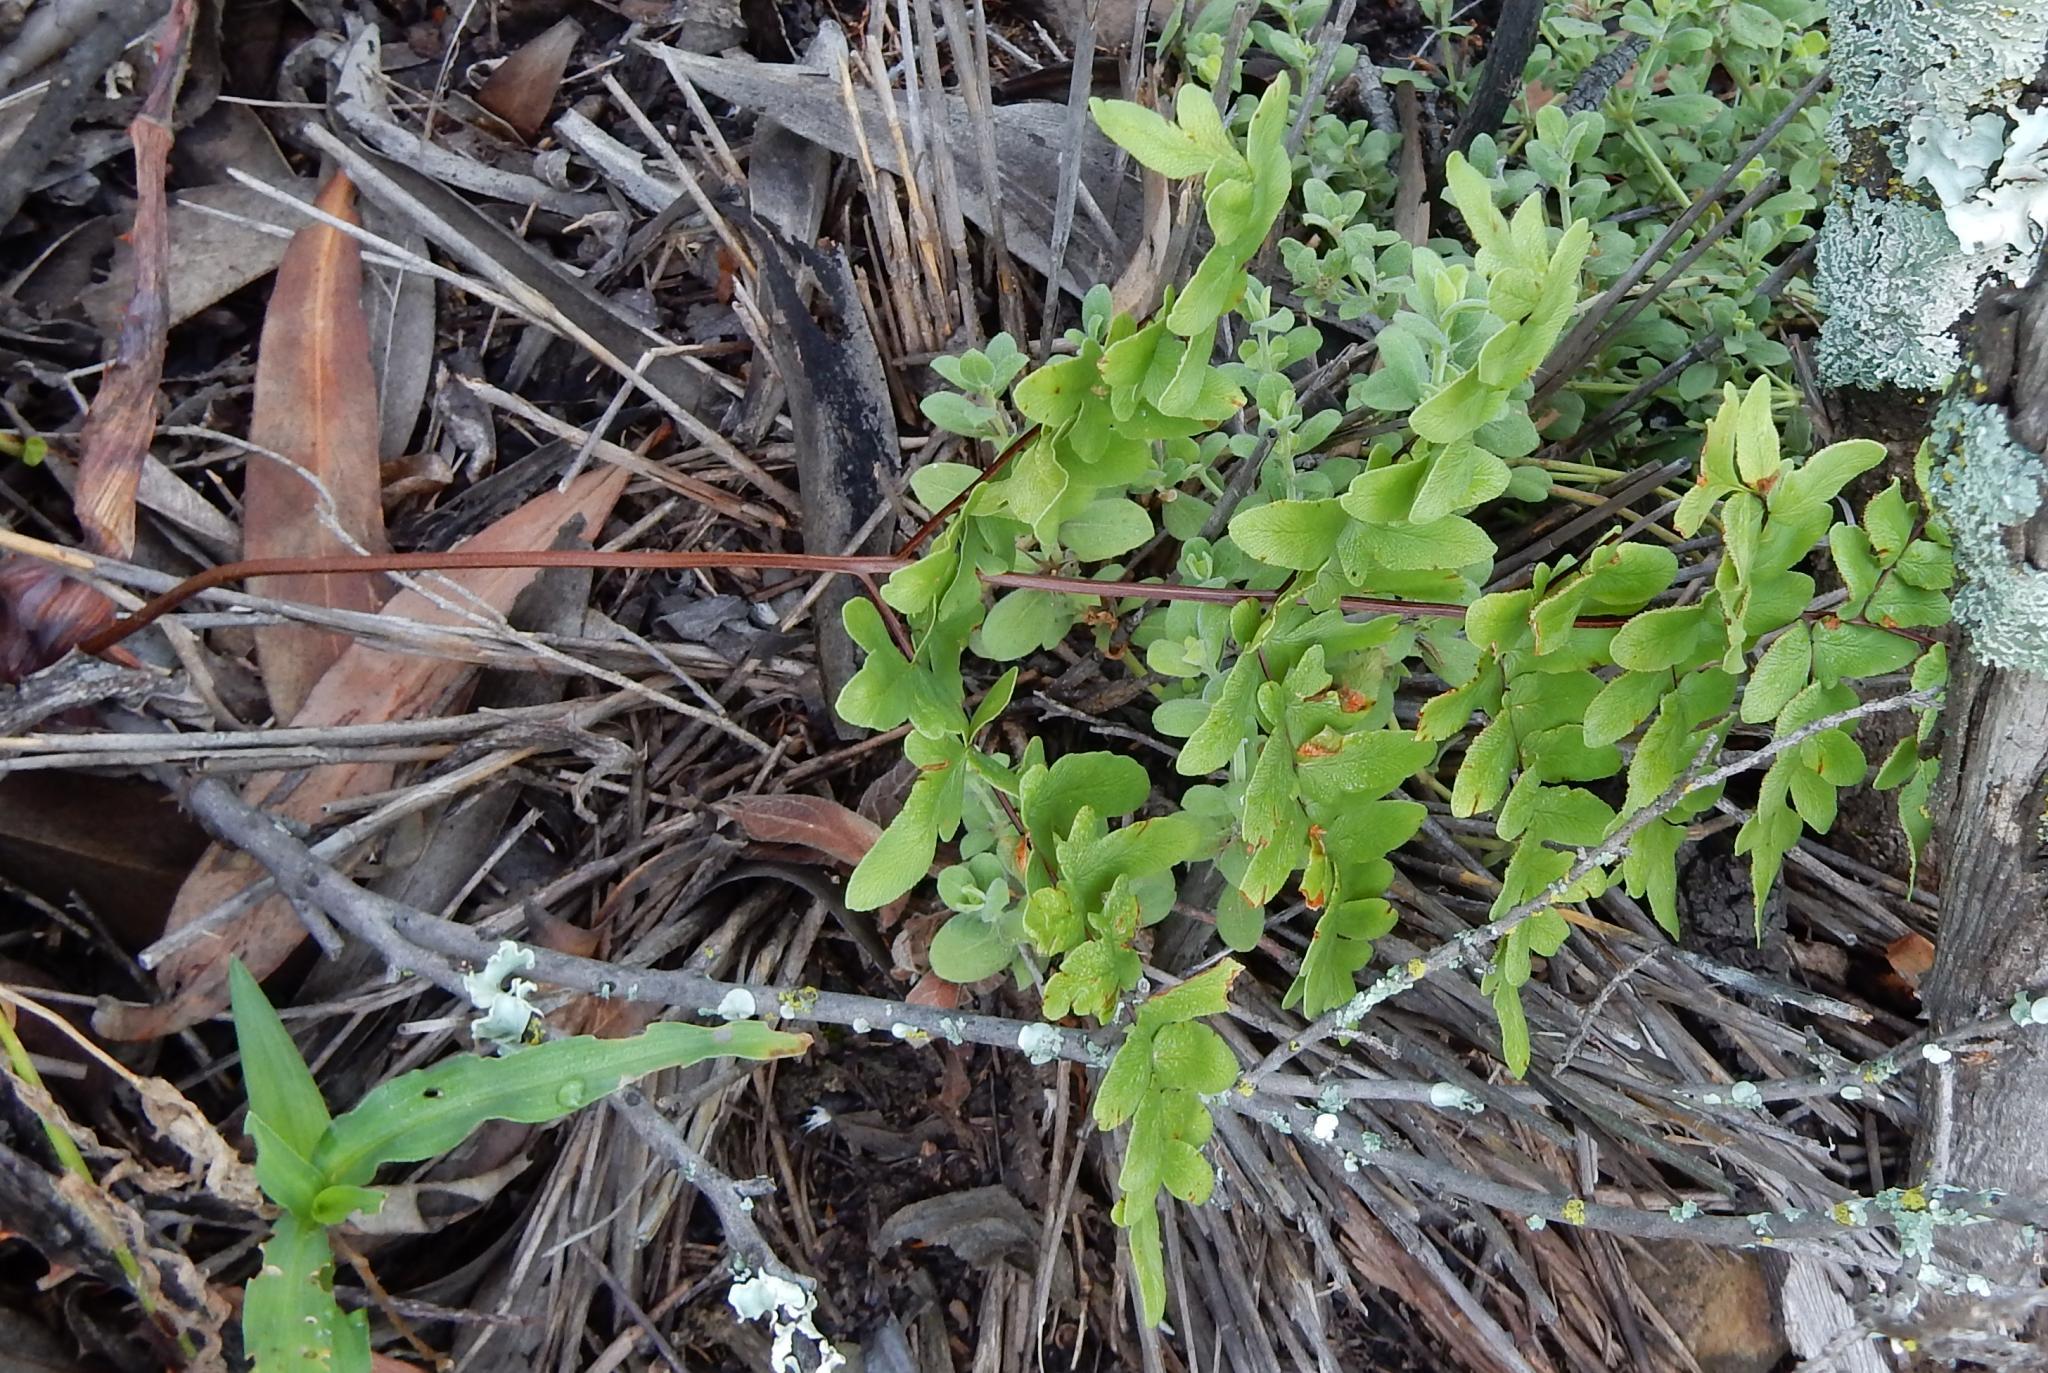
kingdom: Plantae
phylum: Tracheophyta
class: Polypodiopsida
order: Polypodiales
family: Pteridaceae
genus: Cheilanthes
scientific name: Cheilanthes viridis
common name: Green cliffbrake
